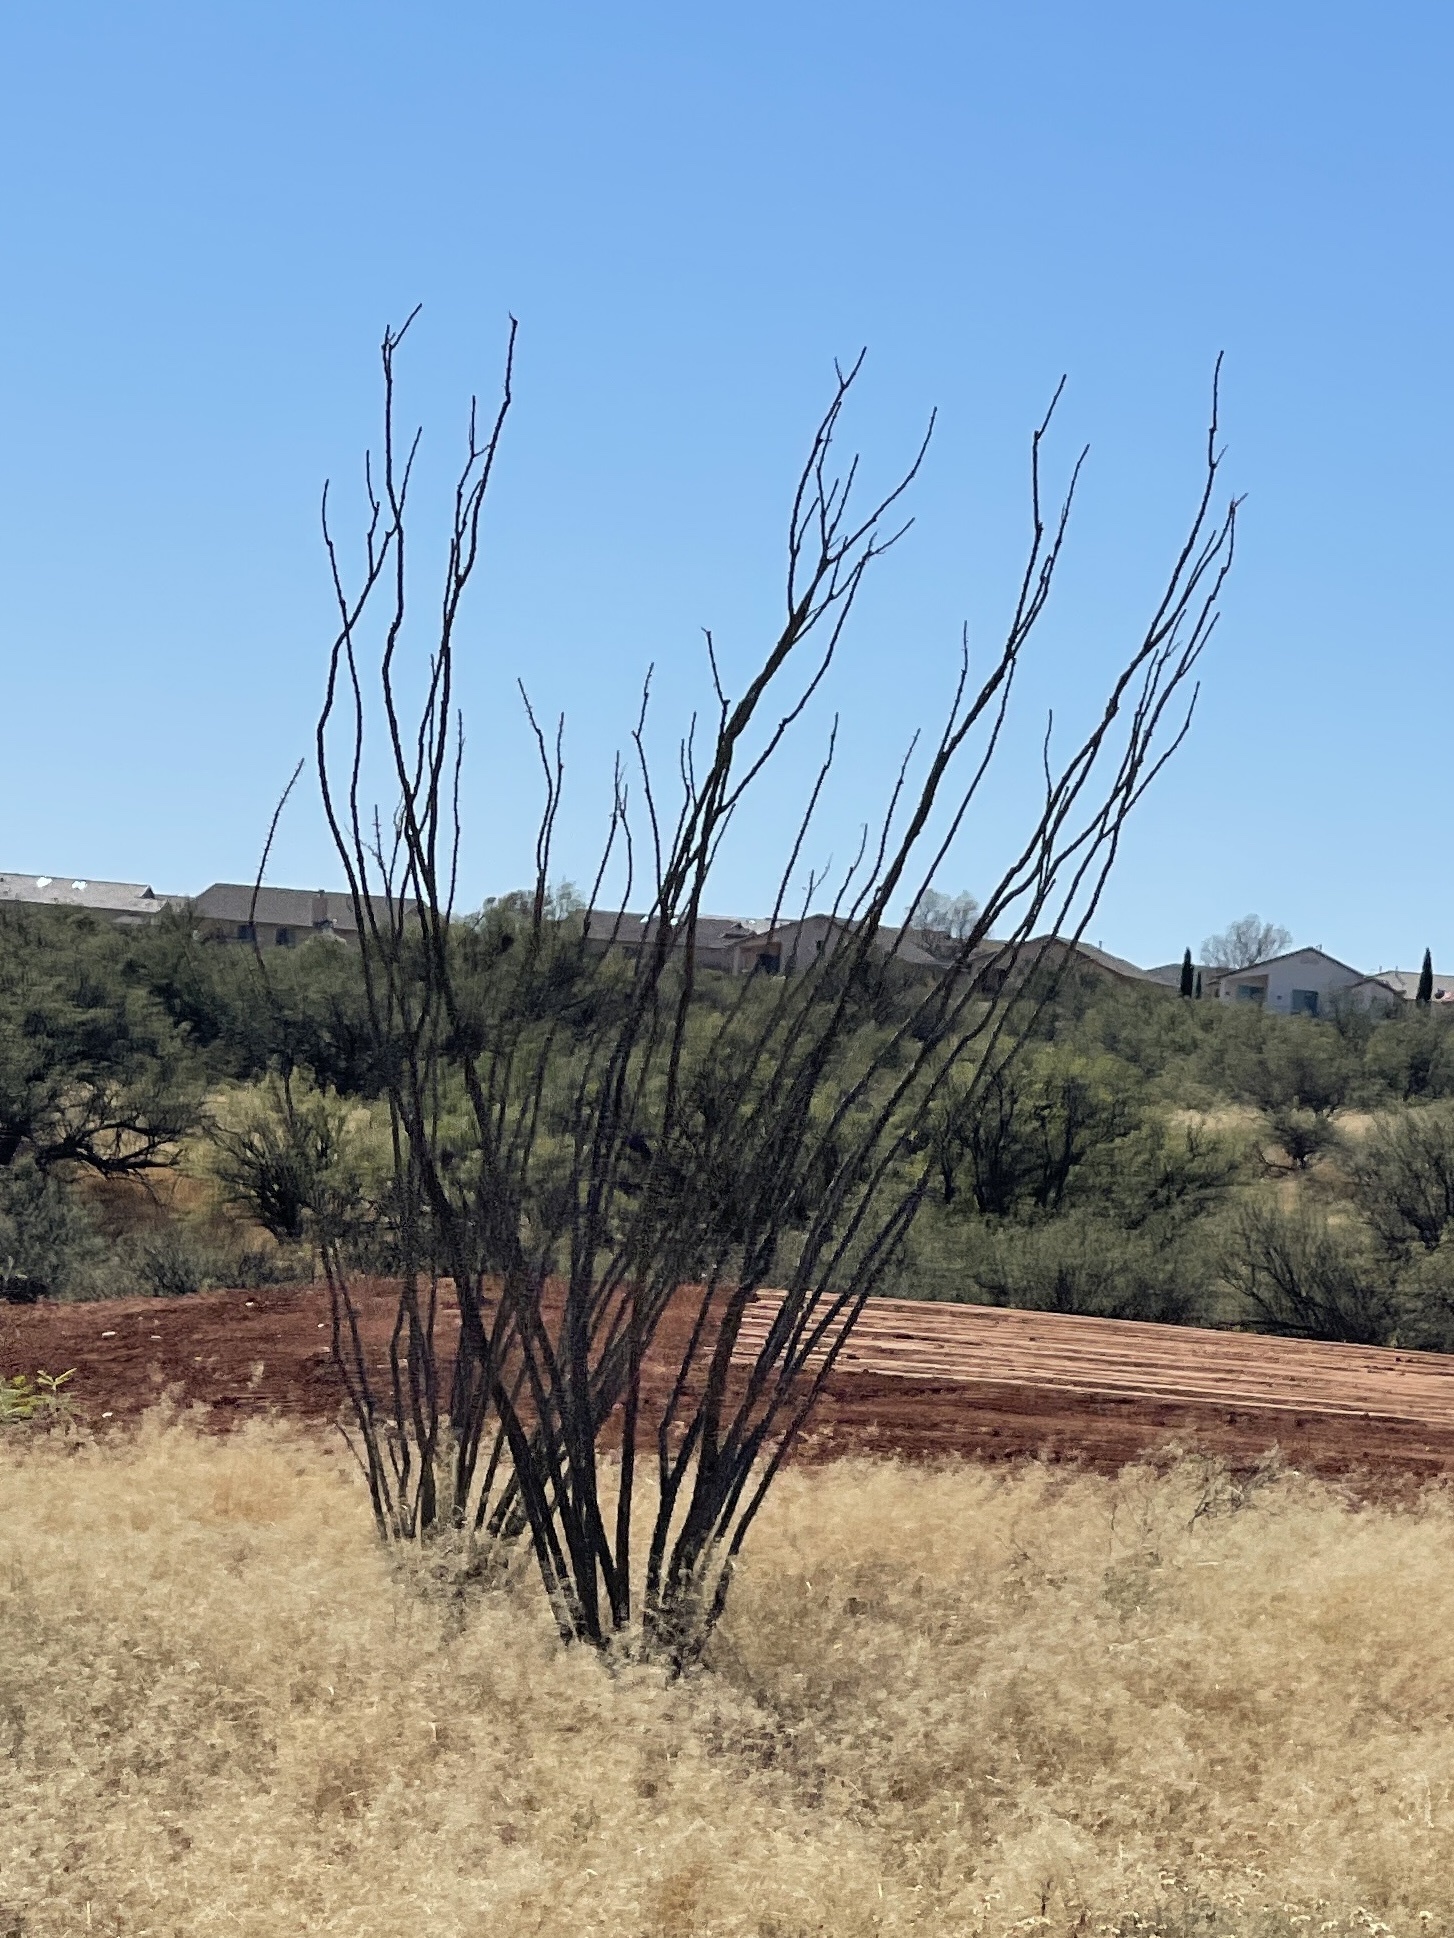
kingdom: Plantae
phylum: Tracheophyta
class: Magnoliopsida
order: Ericales
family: Fouquieriaceae
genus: Fouquieria
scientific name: Fouquieria splendens
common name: Vine-cactus
